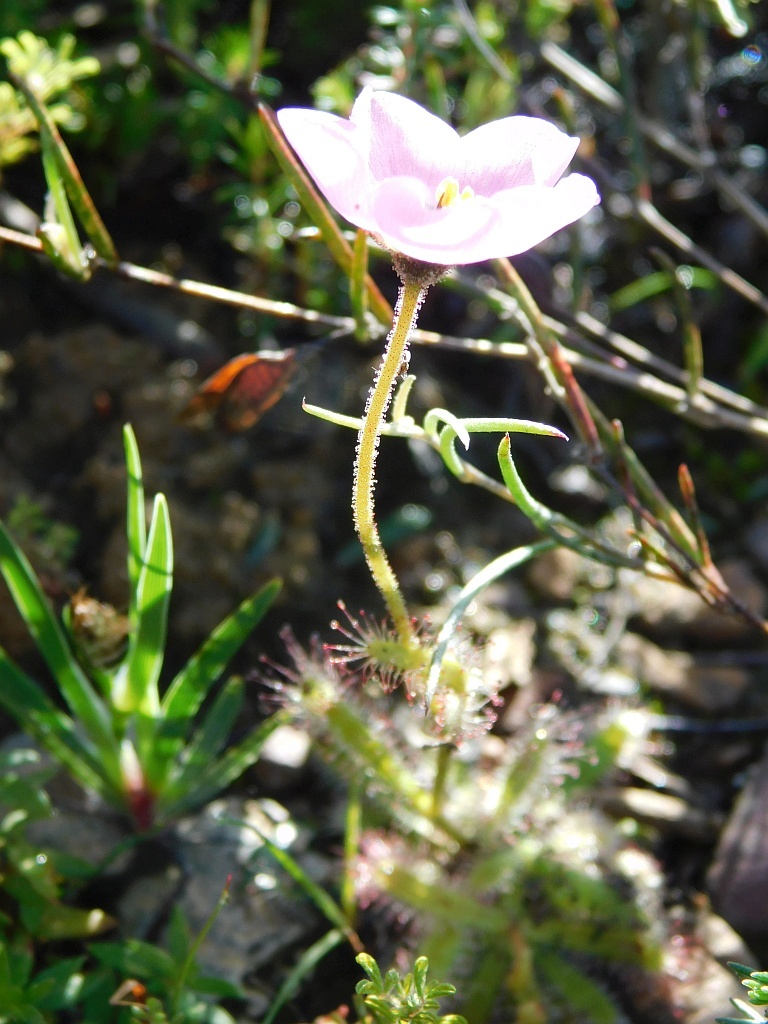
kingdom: Plantae
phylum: Tracheophyta
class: Magnoliopsida
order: Caryophyllales
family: Droseraceae
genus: Drosera
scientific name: Drosera cistiflora
